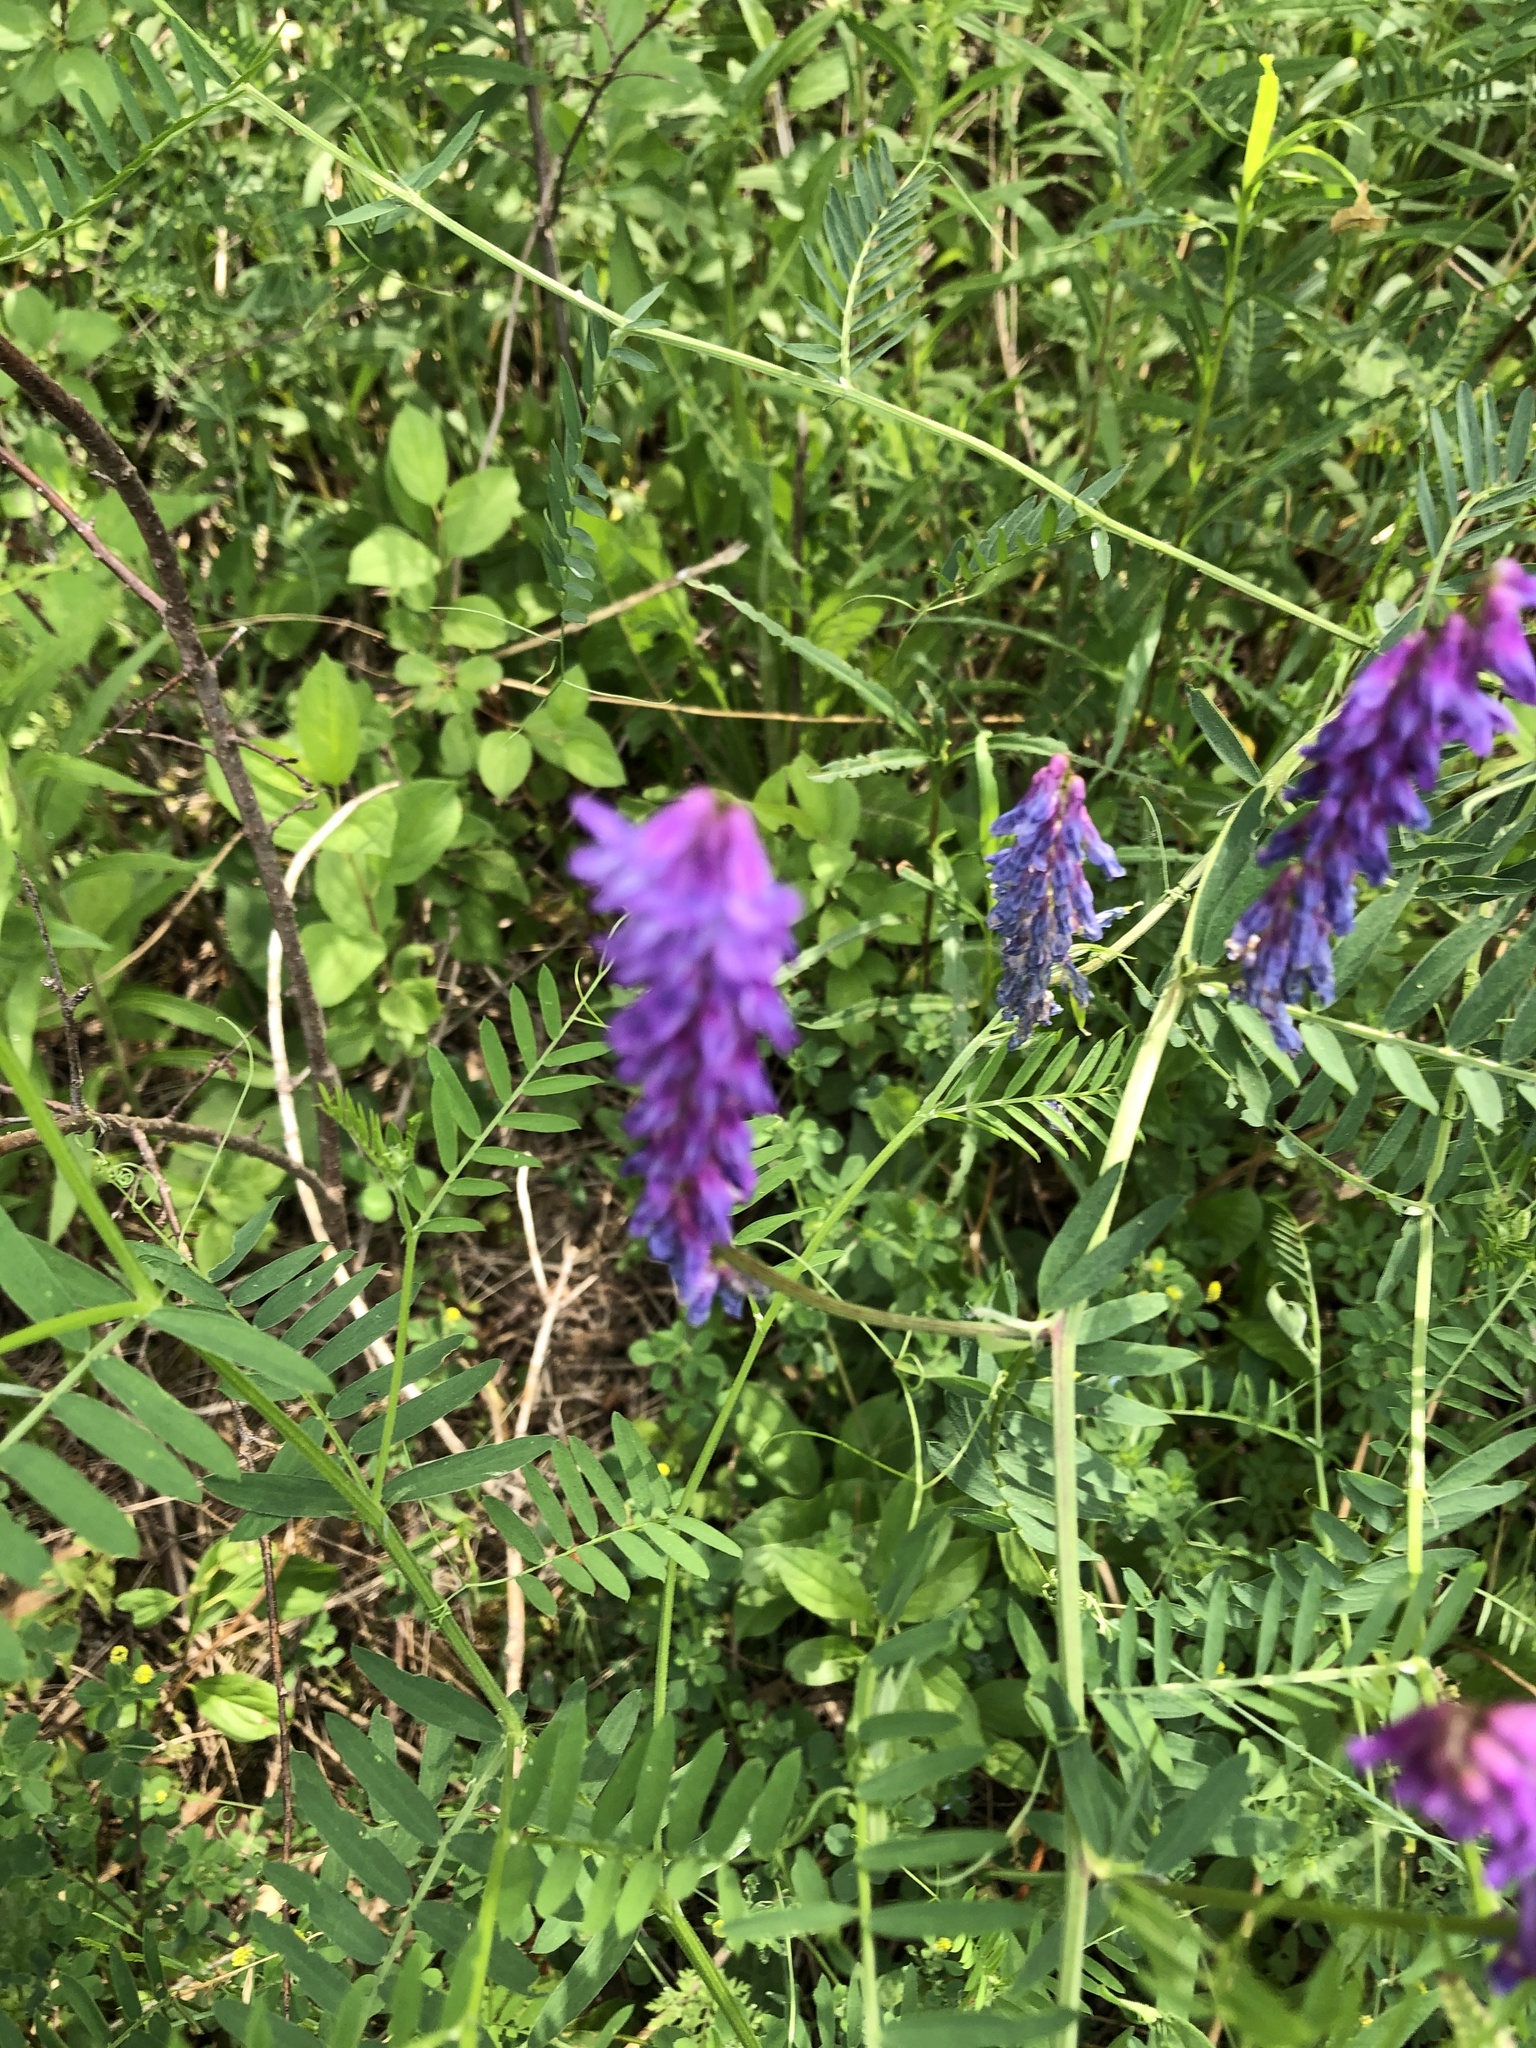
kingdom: Plantae
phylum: Tracheophyta
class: Magnoliopsida
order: Fabales
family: Fabaceae
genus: Vicia
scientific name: Vicia cracca
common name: Bird vetch
